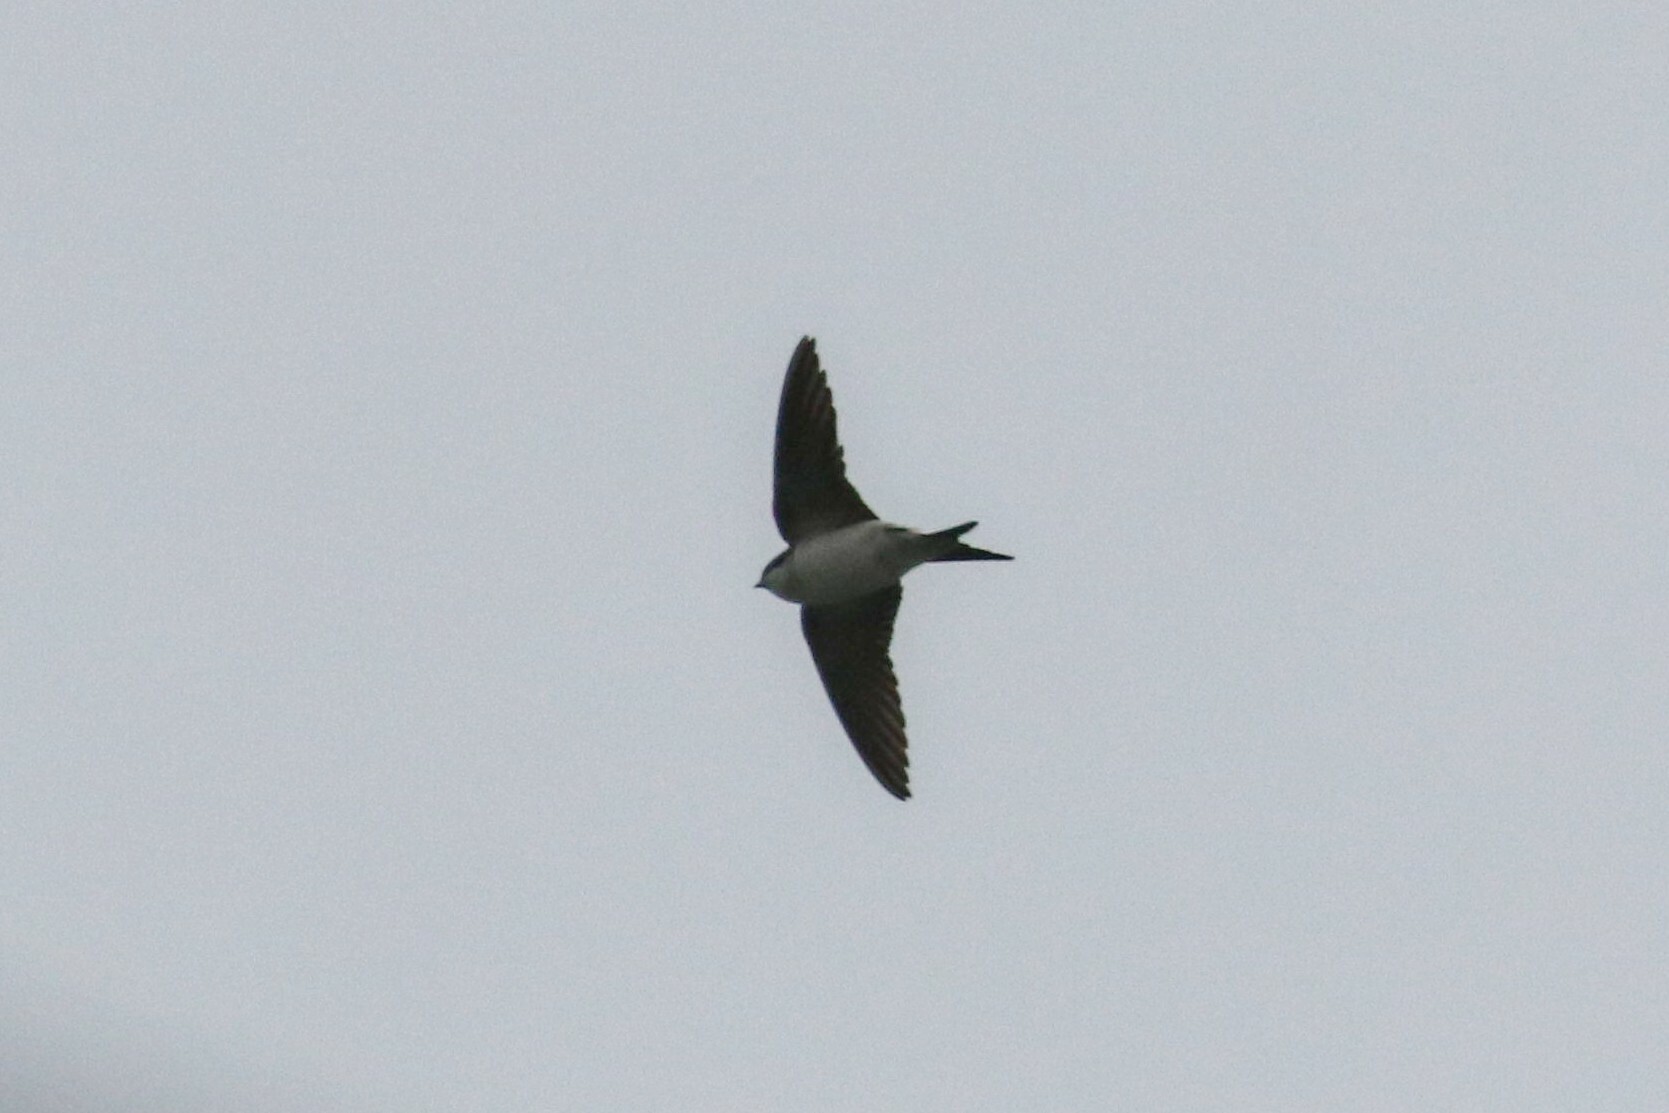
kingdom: Animalia
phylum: Chordata
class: Aves
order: Passeriformes
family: Hirundinidae
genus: Delichon
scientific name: Delichon urbicum
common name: Common house martin
